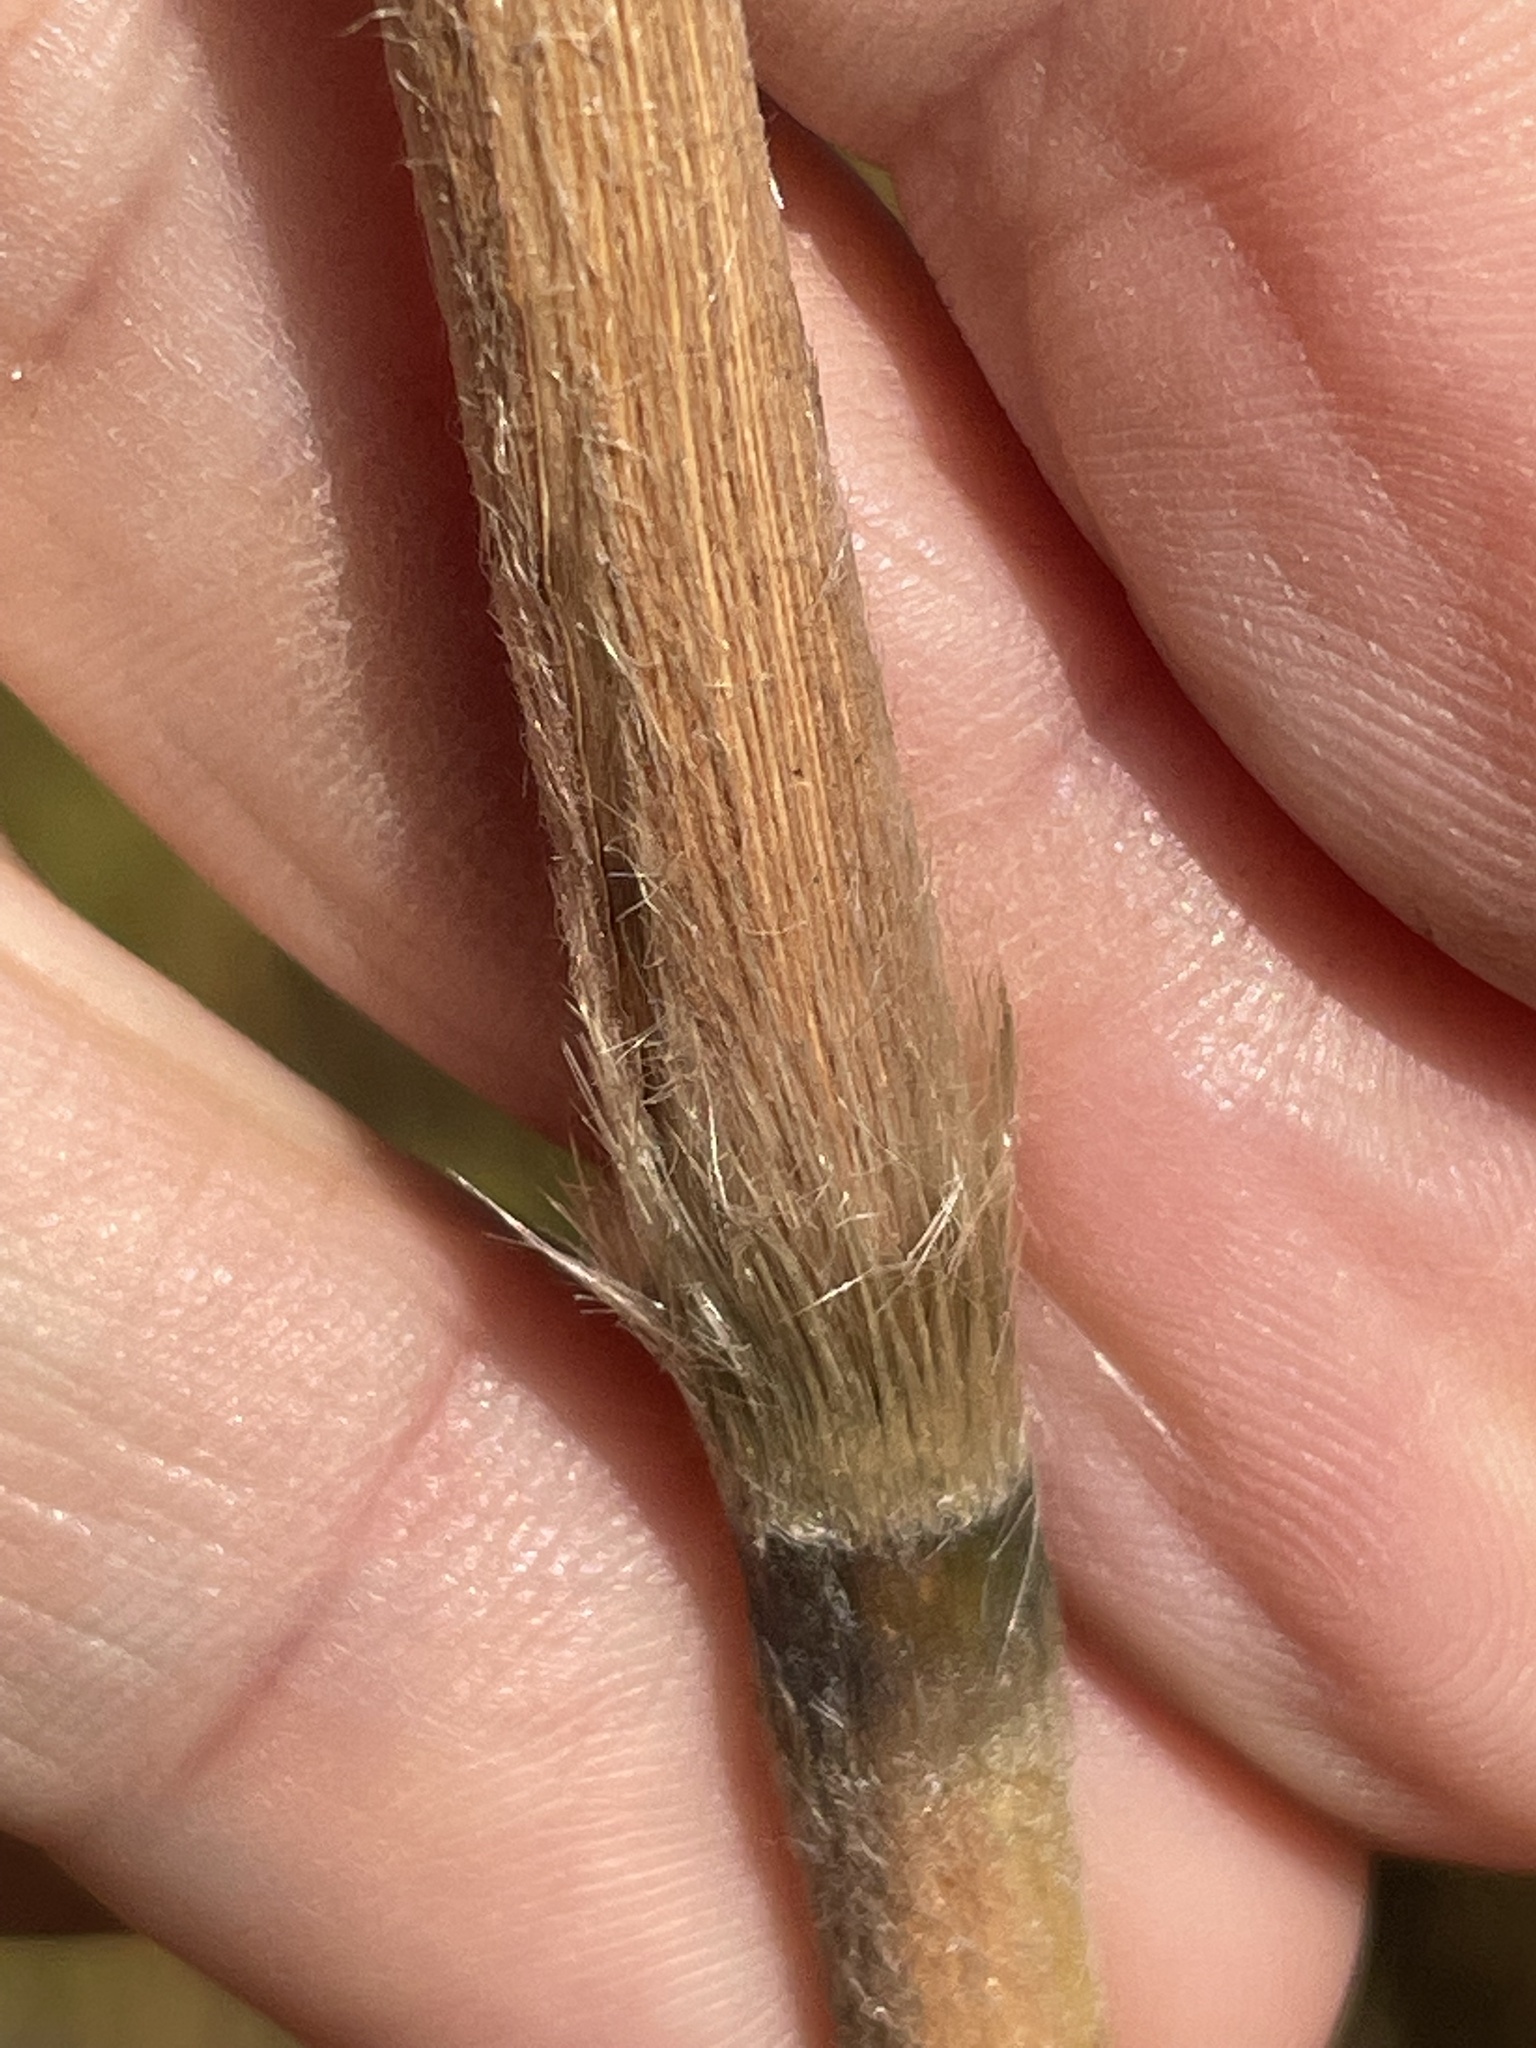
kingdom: Plantae
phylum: Tracheophyta
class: Liliopsida
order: Poales
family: Poaceae
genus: Erianthus
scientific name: Erianthus giganteus
